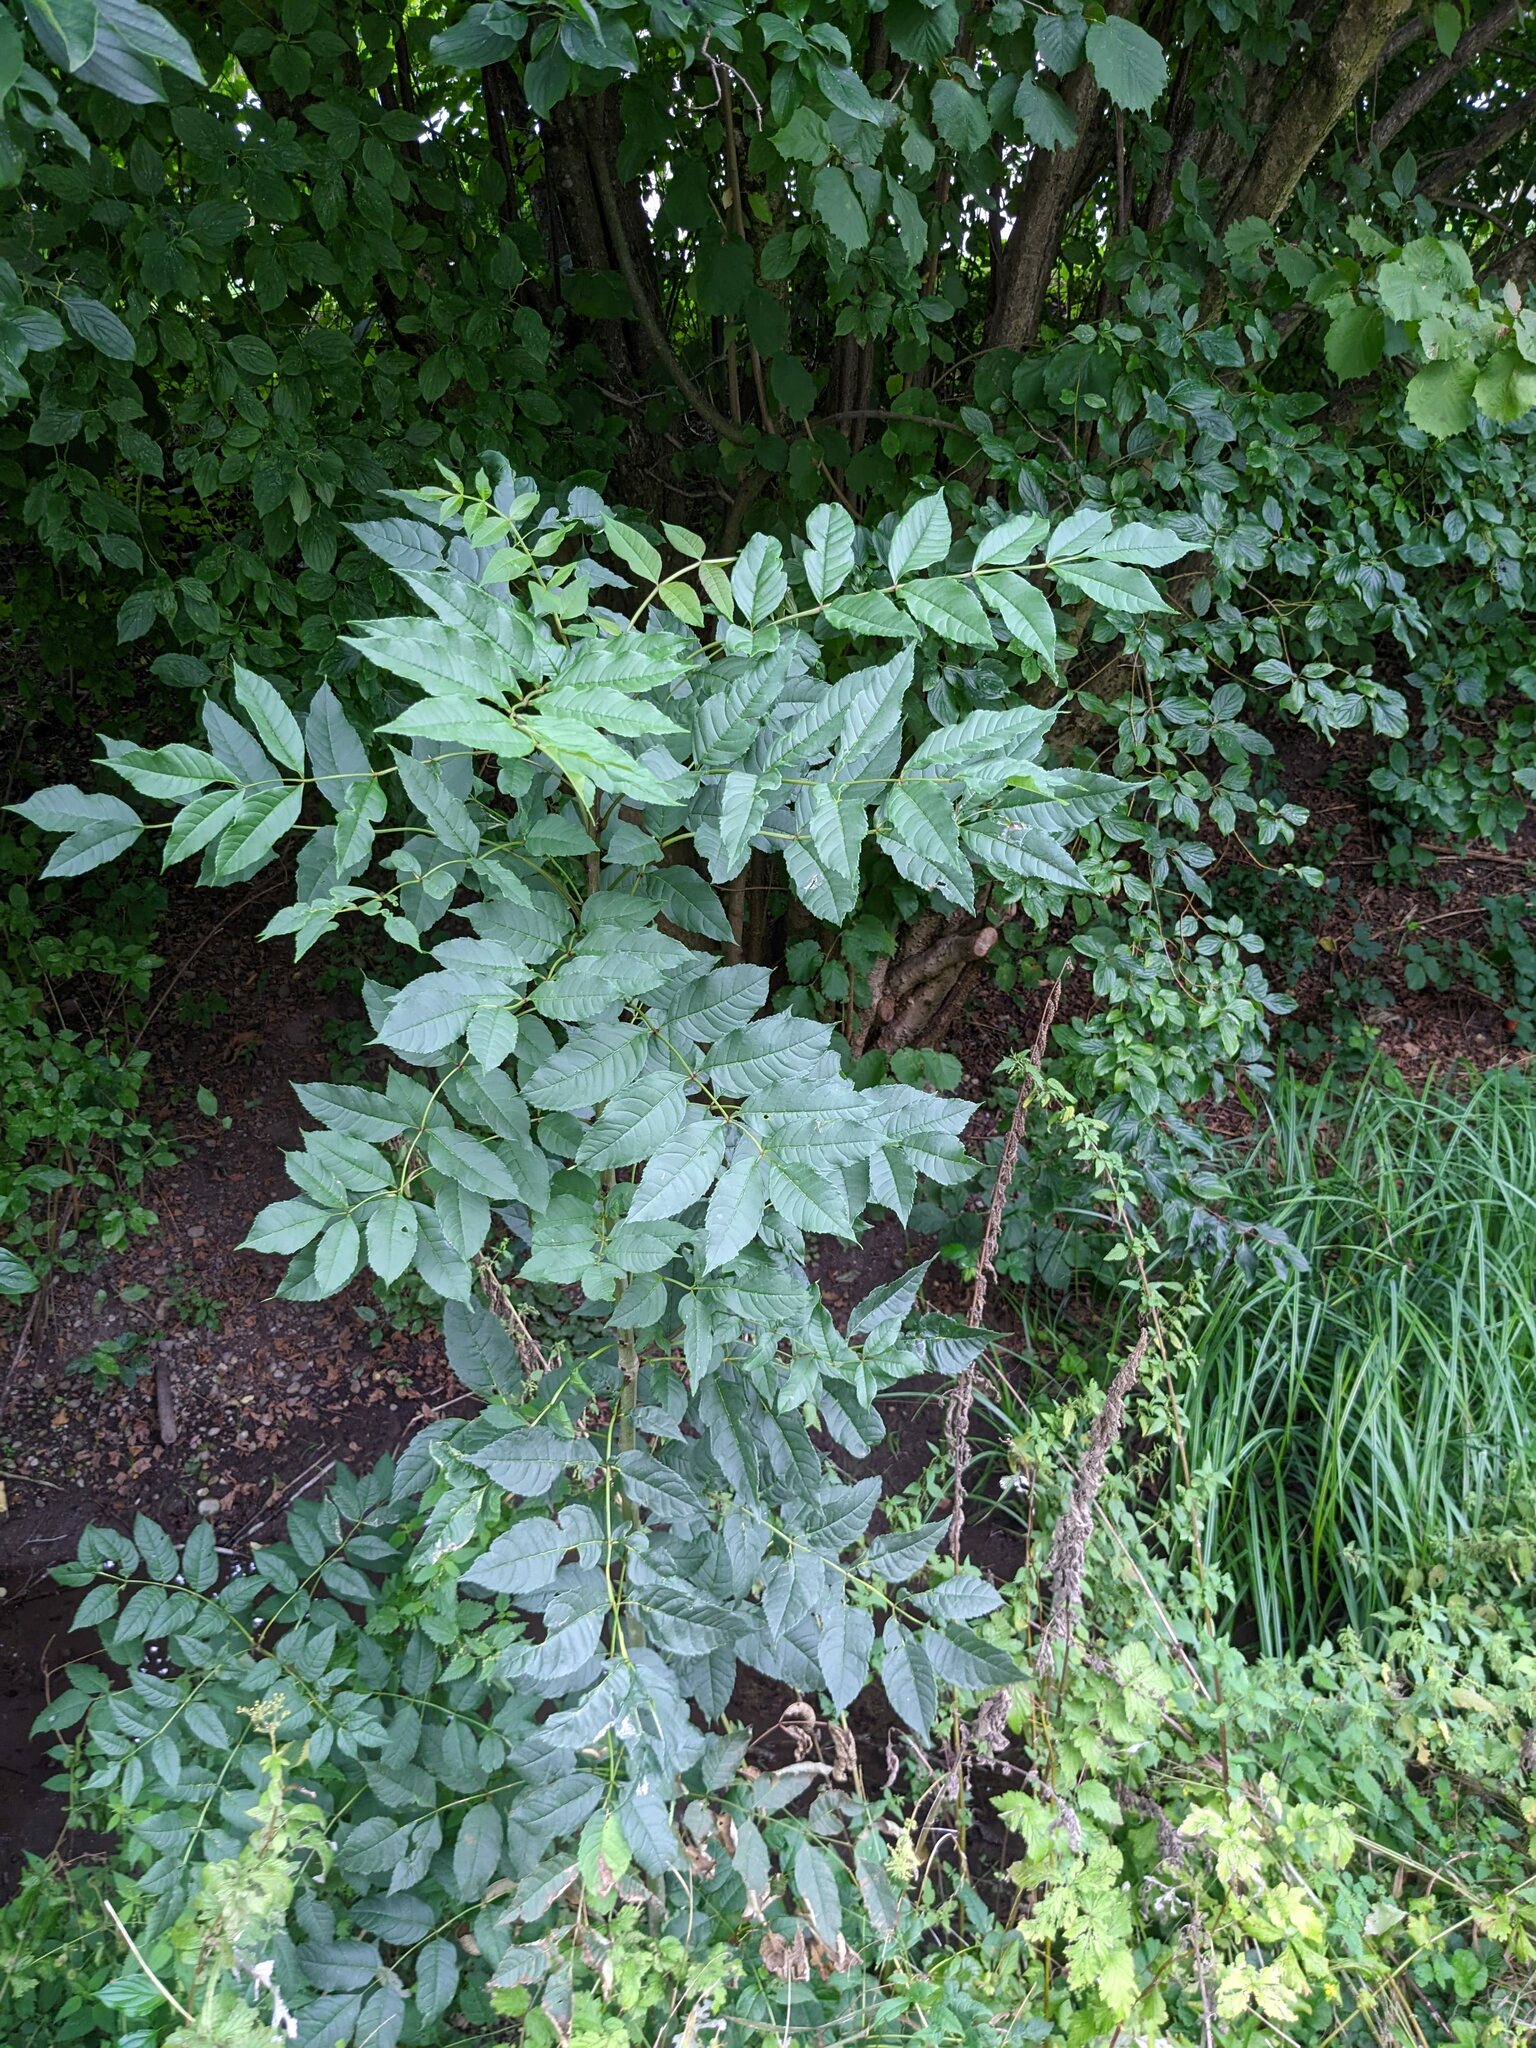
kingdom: Plantae
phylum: Tracheophyta
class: Magnoliopsida
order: Lamiales
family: Oleaceae
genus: Fraxinus
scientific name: Fraxinus excelsior
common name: European ash
